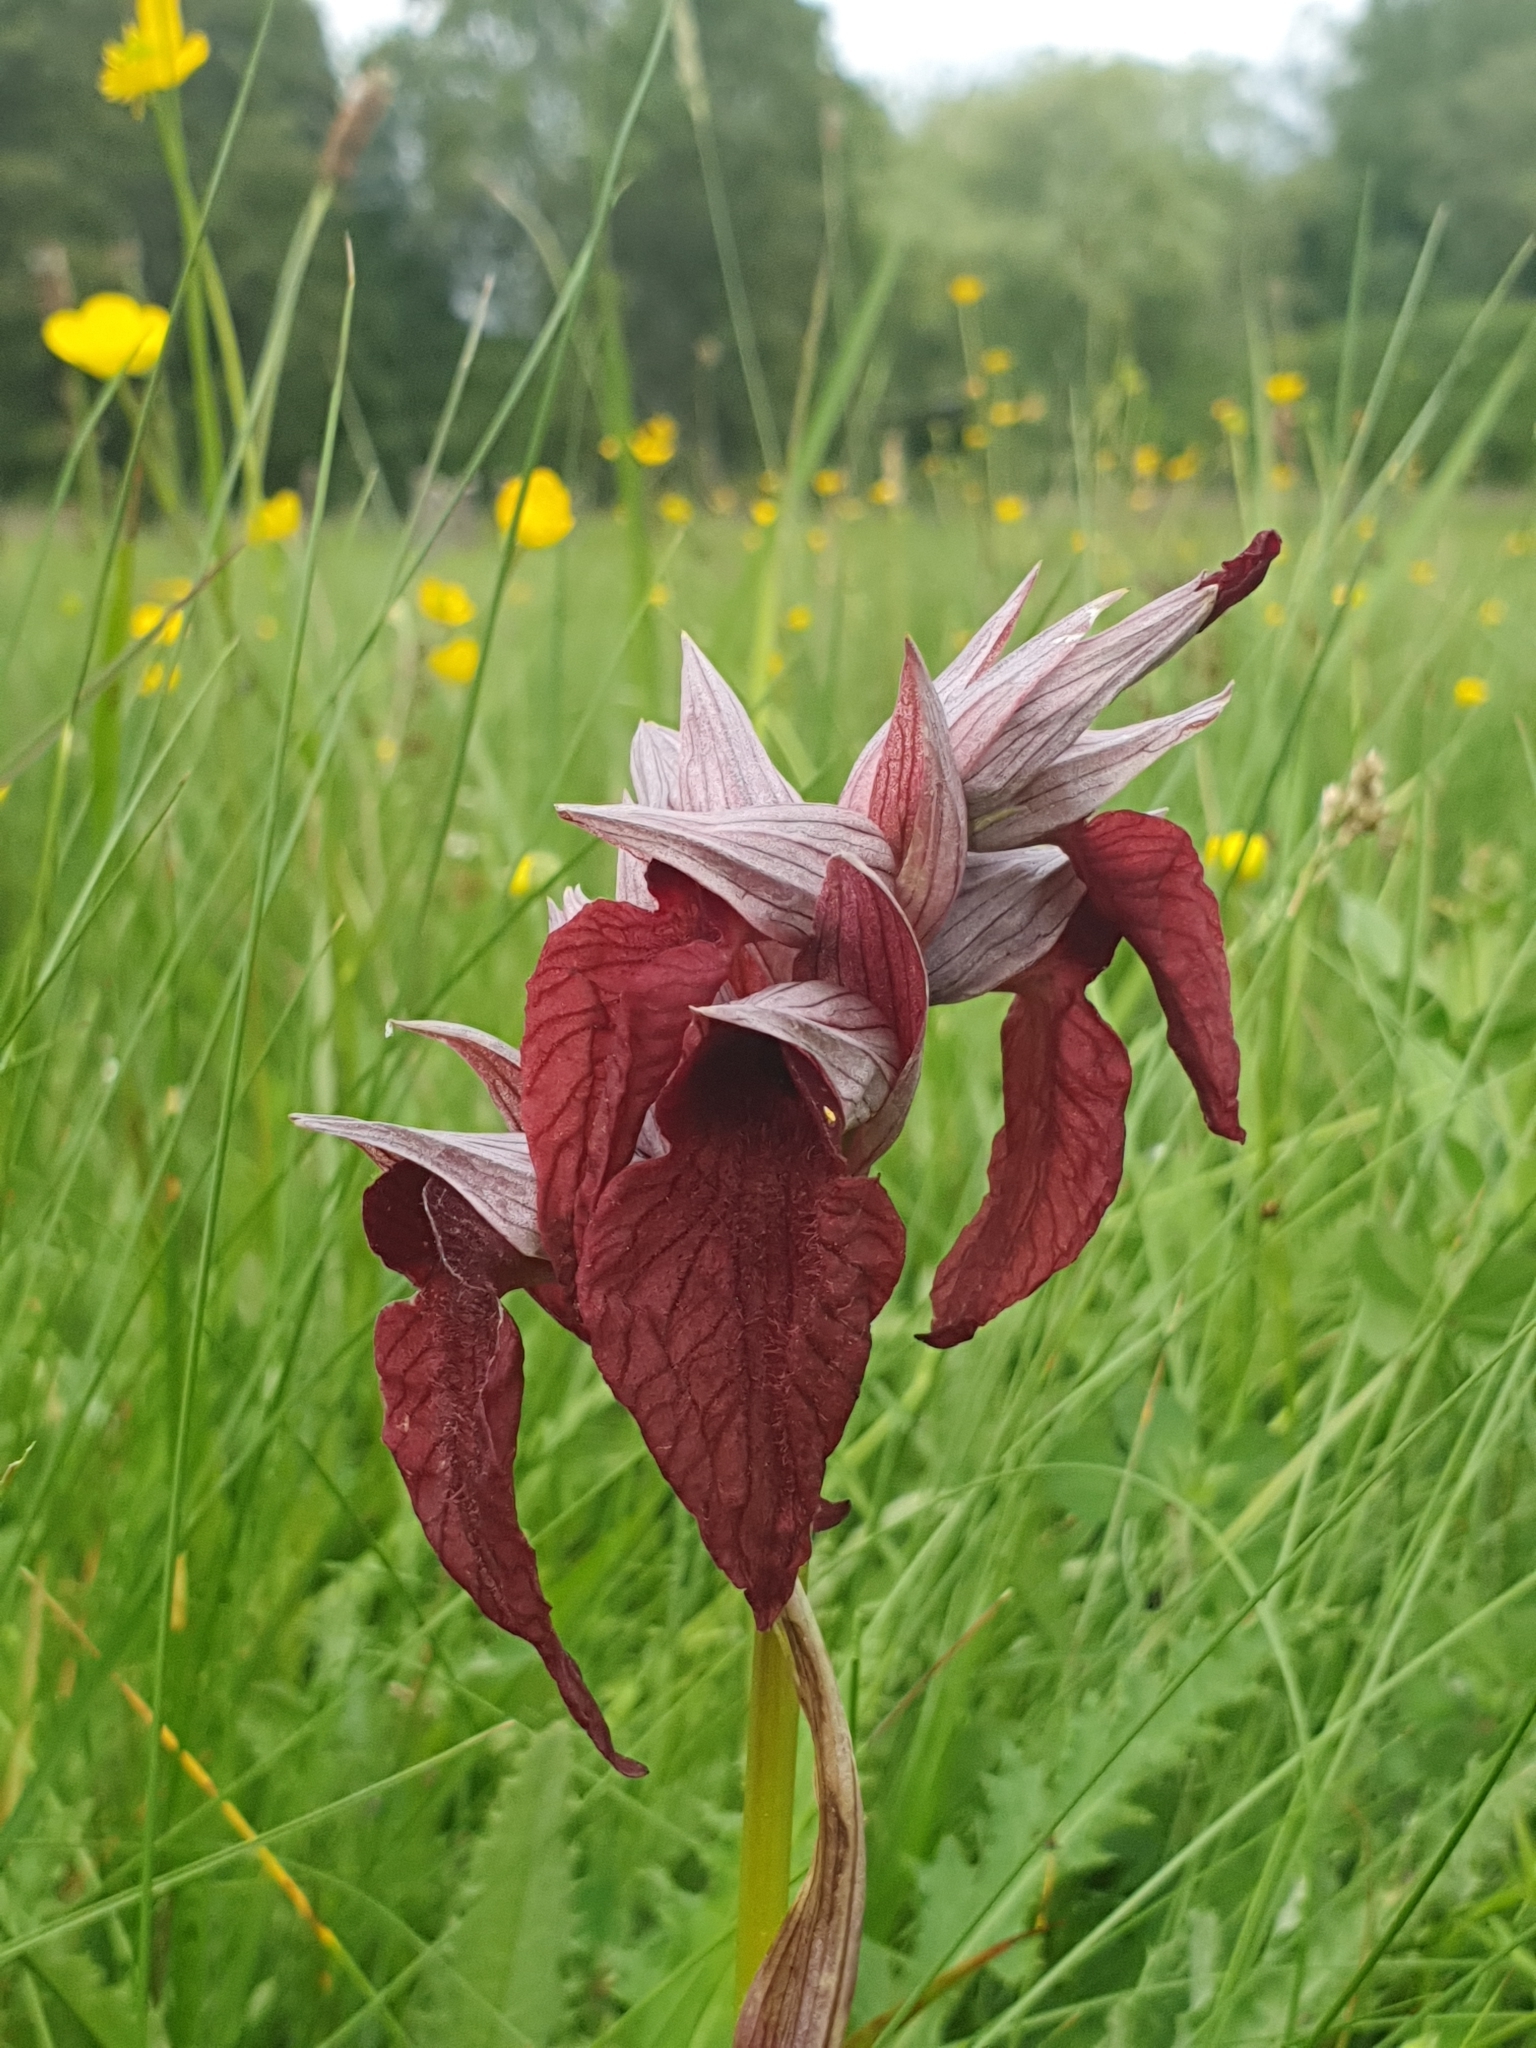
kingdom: Plantae
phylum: Tracheophyta
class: Liliopsida
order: Asparagales
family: Orchidaceae
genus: Serapias
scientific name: Serapias cordigera
